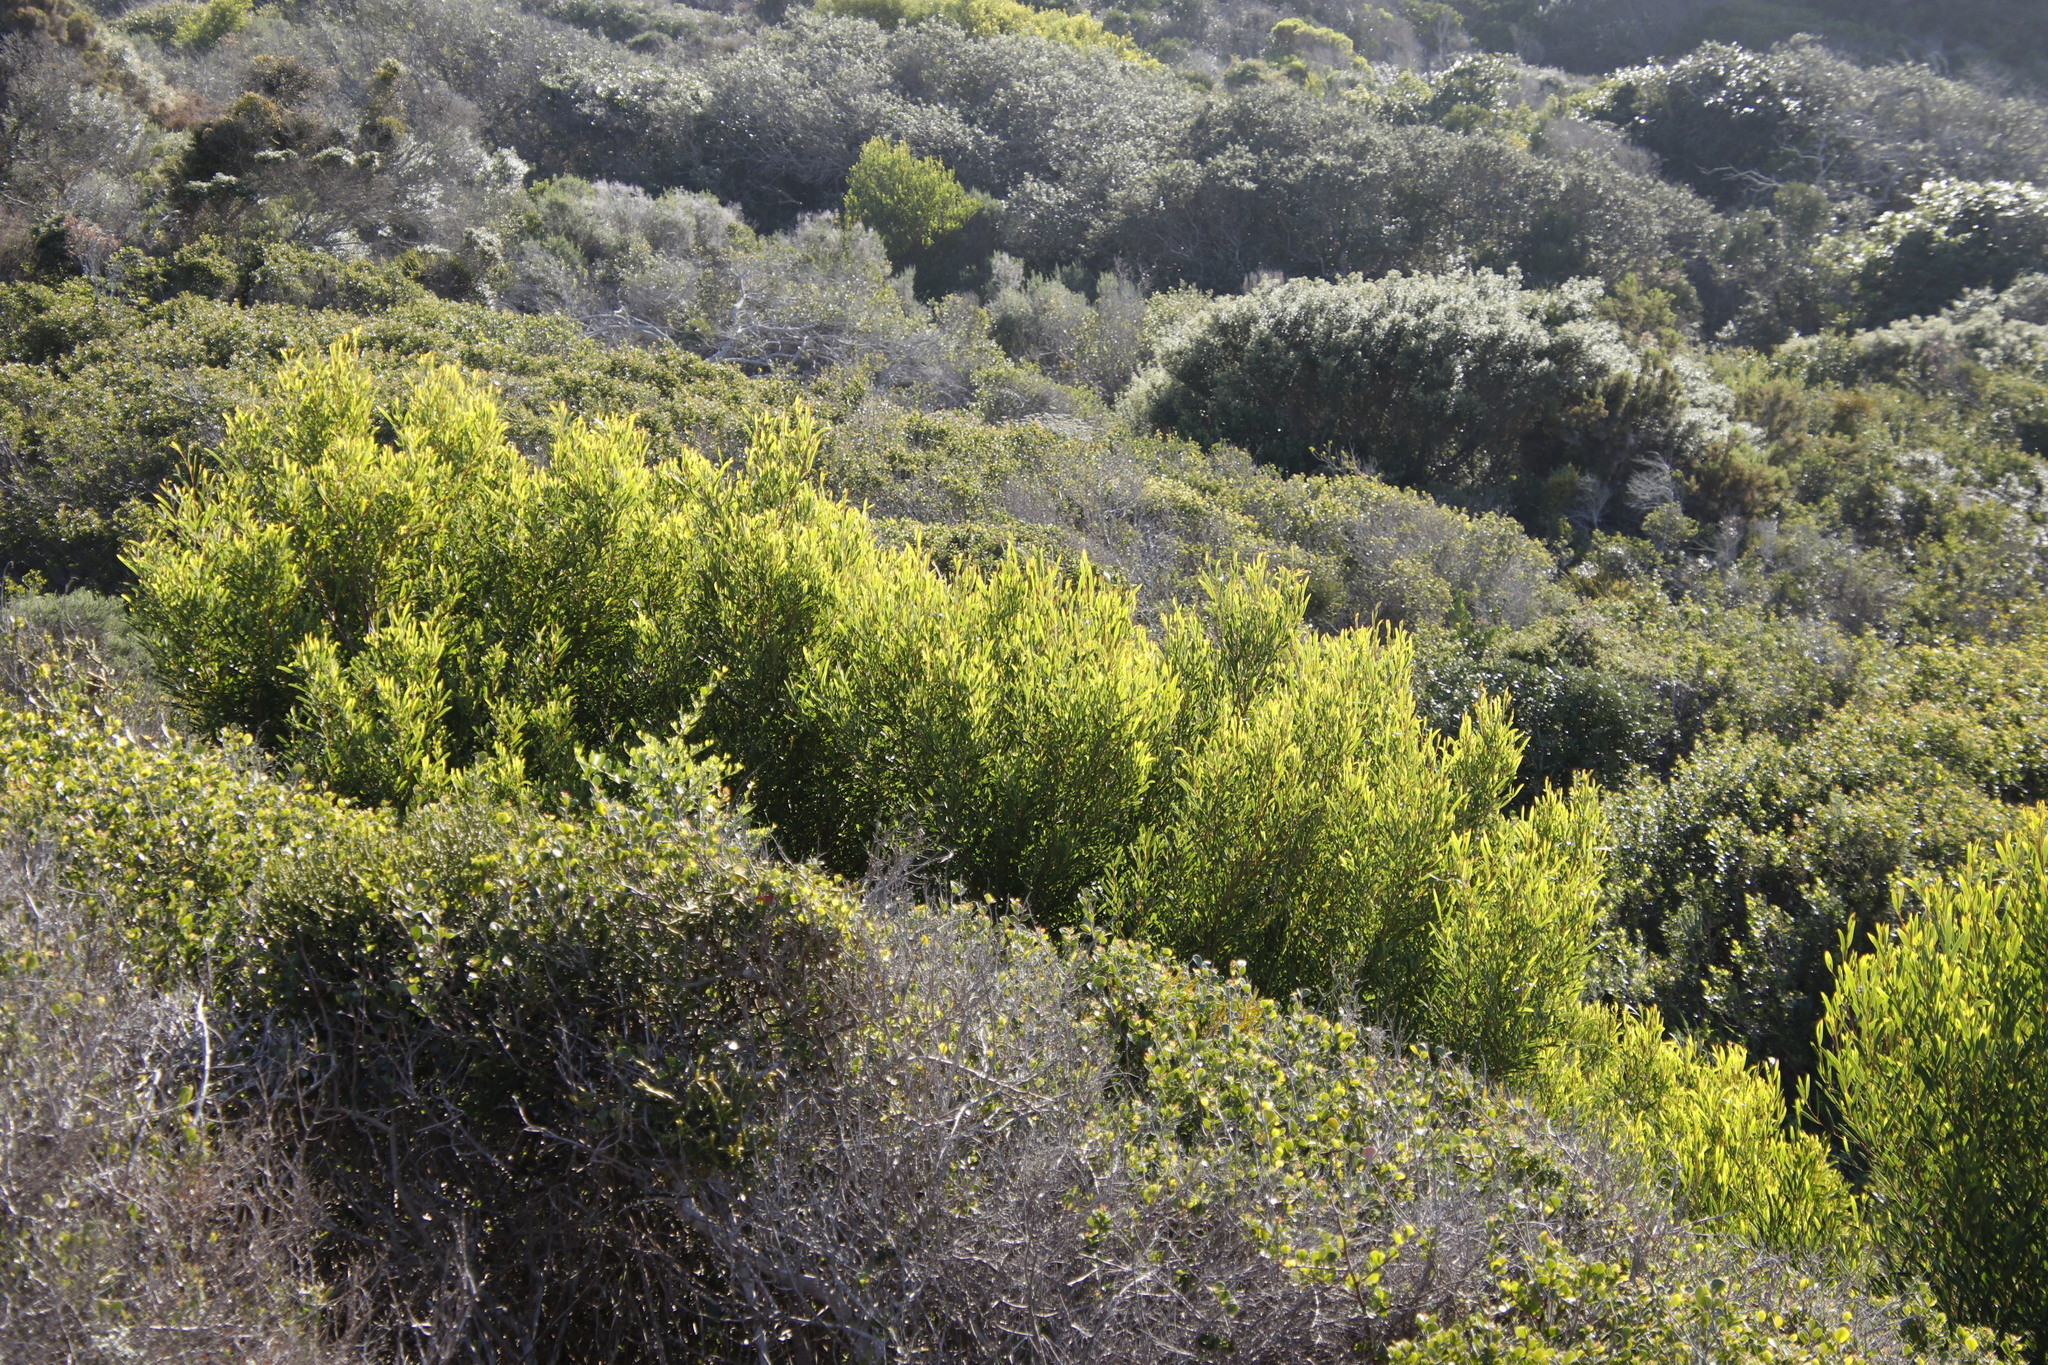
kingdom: Plantae
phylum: Tracheophyta
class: Magnoliopsida
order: Fabales
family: Fabaceae
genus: Acacia
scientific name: Acacia cyclops
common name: Coastal wattle
